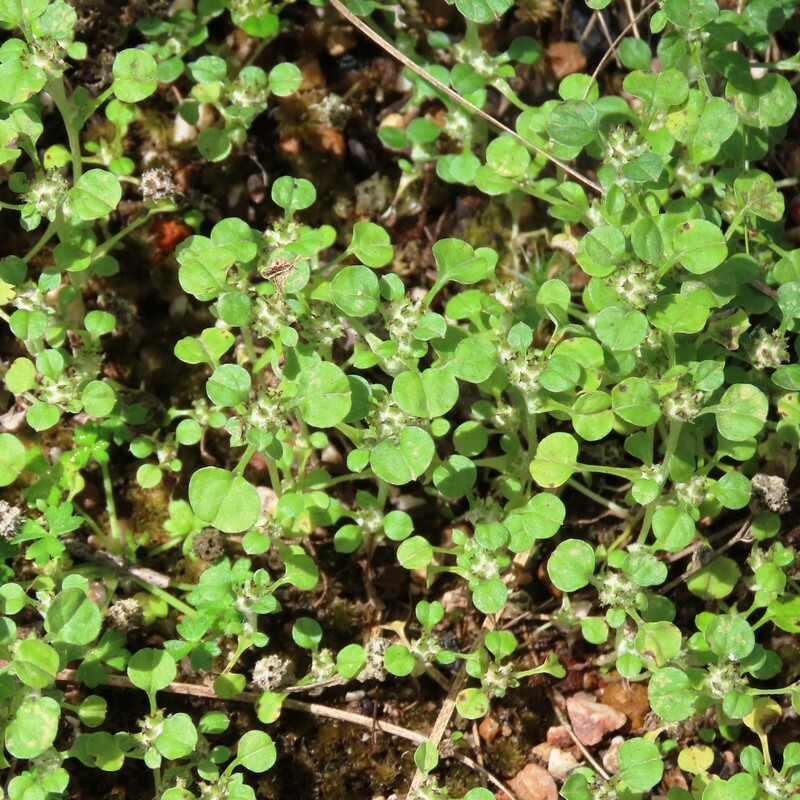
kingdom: Plantae
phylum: Tracheophyta
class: Magnoliopsida
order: Asterales
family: Asteraceae
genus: Stuartina
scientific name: Stuartina muelleri
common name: Spoon-leaved cudweed
